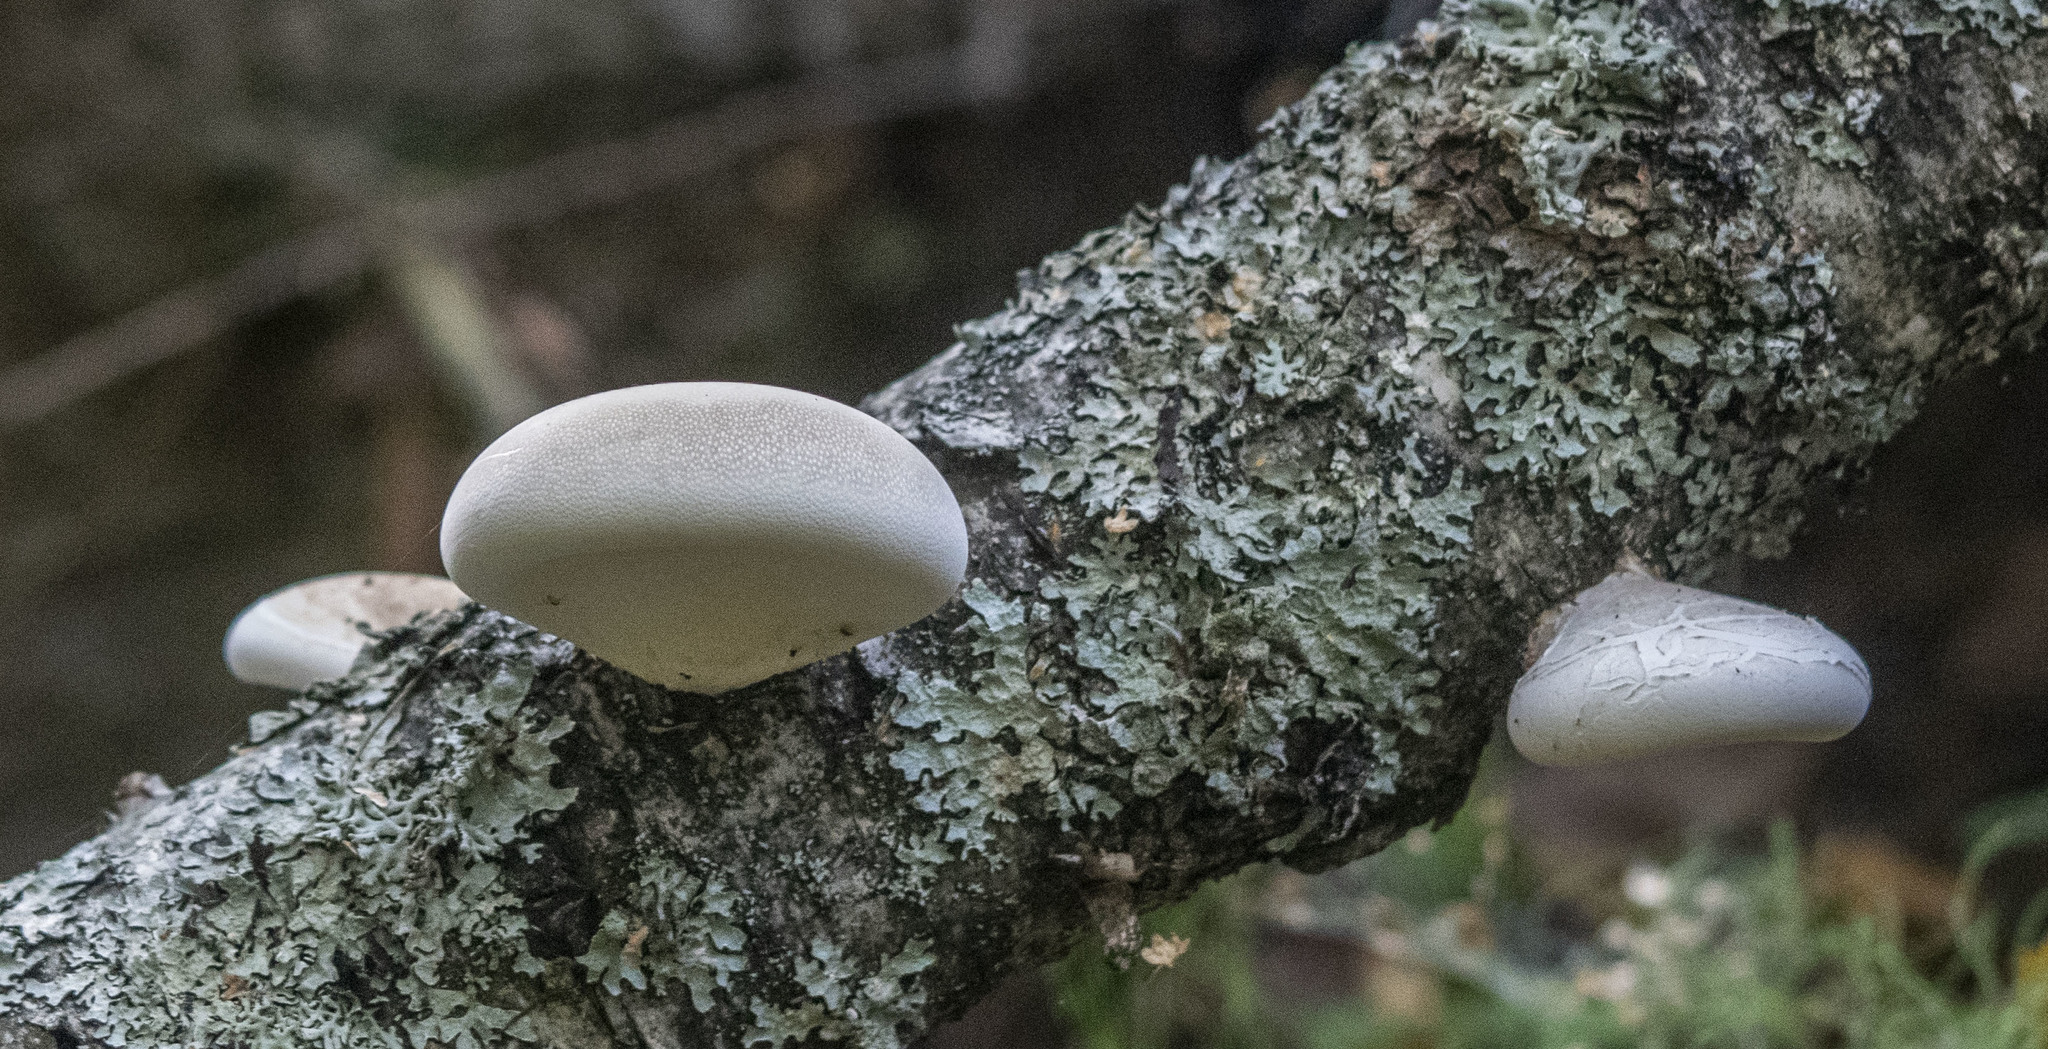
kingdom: Fungi
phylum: Basidiomycota
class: Agaricomycetes
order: Polyporales
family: Fomitopsidaceae
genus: Fomitopsis
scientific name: Fomitopsis betulina
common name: Birch polypore
